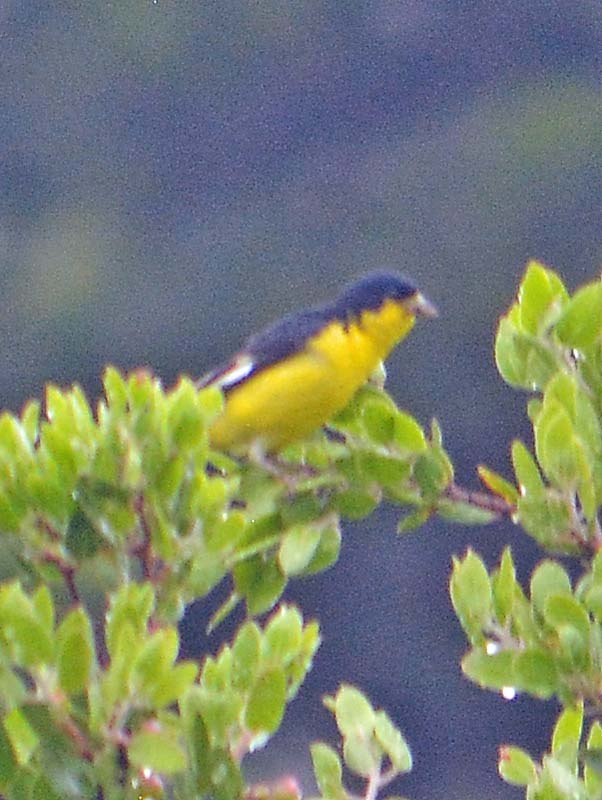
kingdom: Animalia
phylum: Chordata
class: Aves
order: Passeriformes
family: Fringillidae
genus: Spinus
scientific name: Spinus psaltria
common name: Lesser goldfinch
